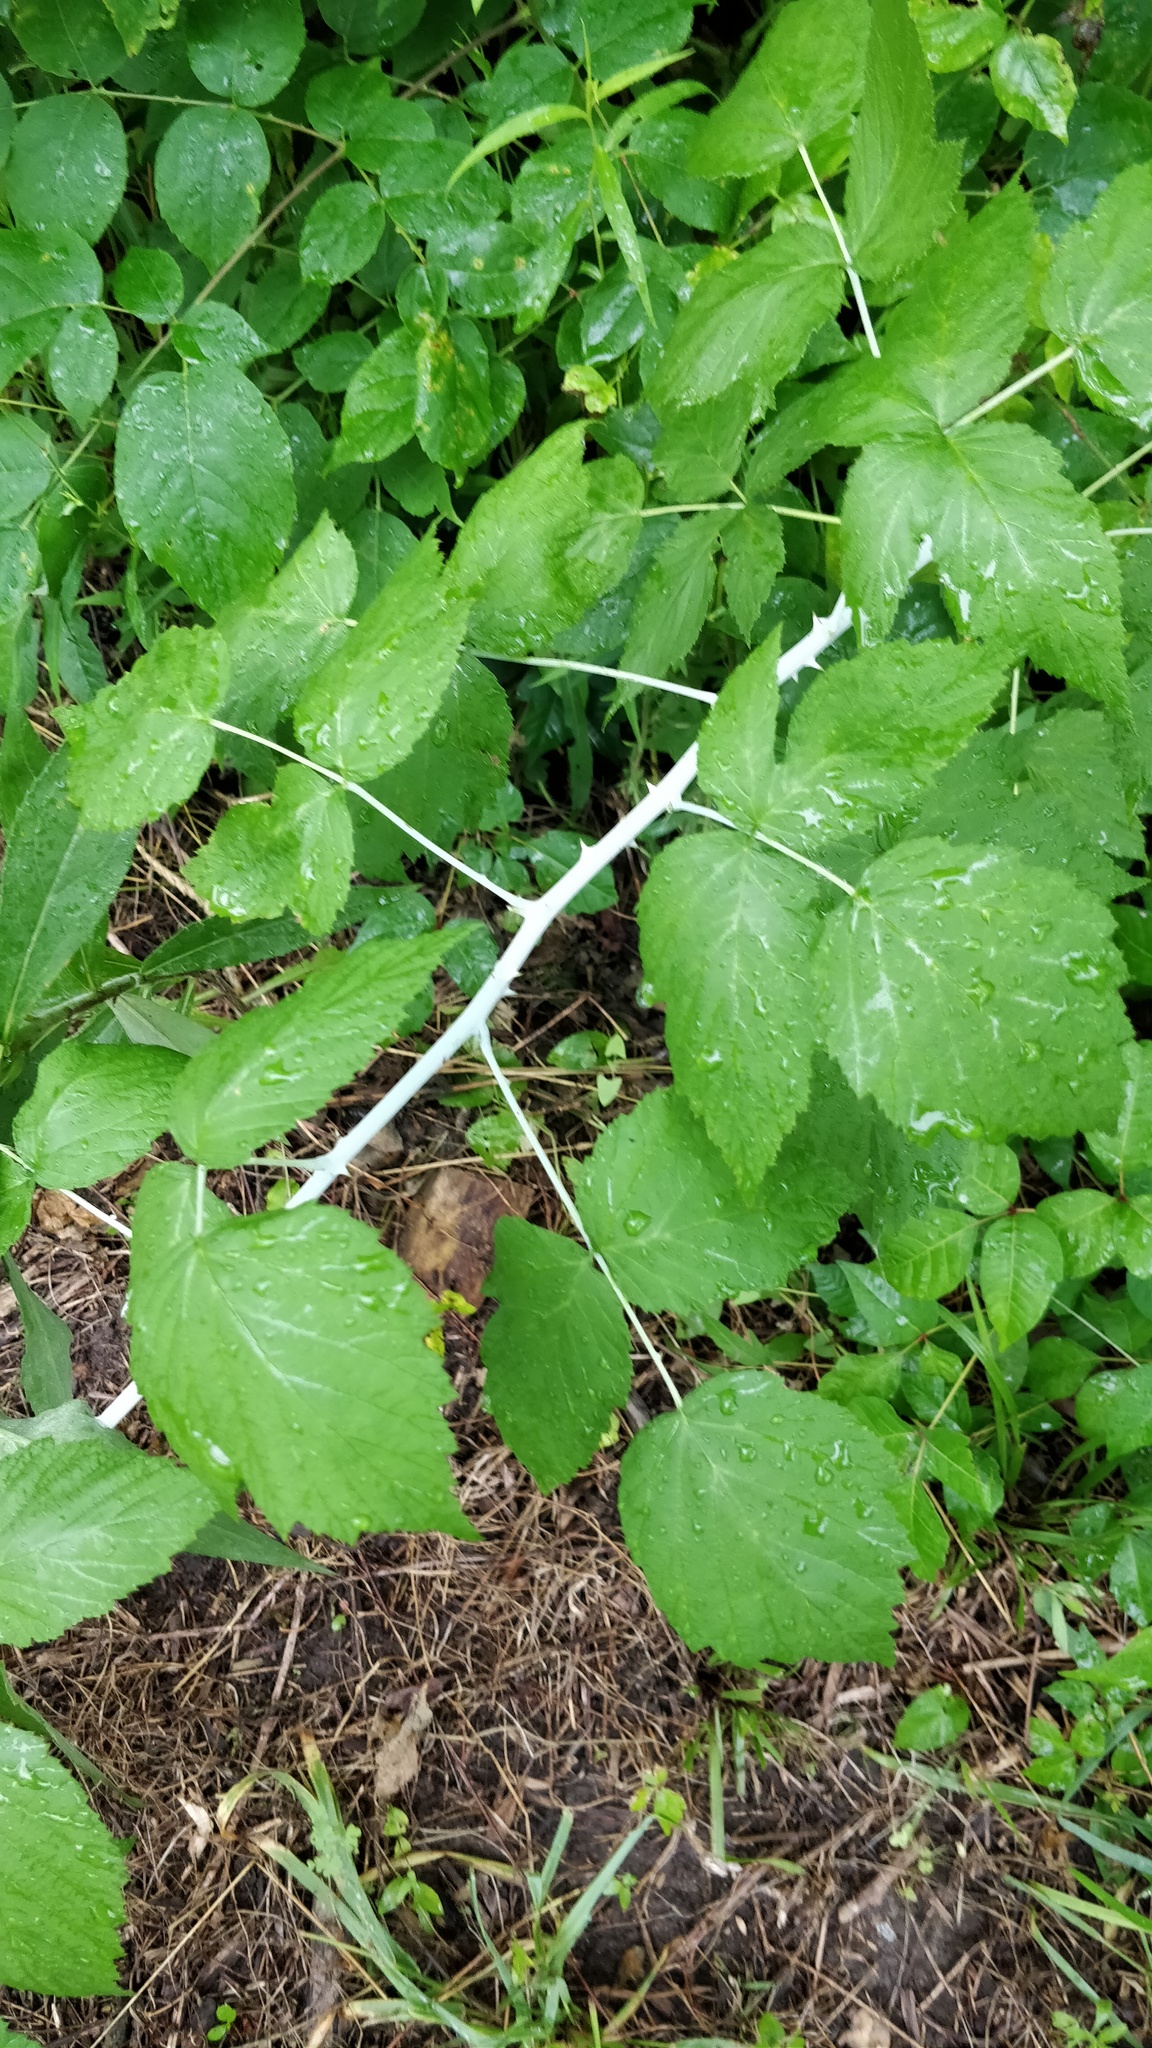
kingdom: Plantae
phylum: Tracheophyta
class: Magnoliopsida
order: Rosales
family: Rosaceae
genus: Rubus
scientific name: Rubus occidentalis
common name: Black raspberry
